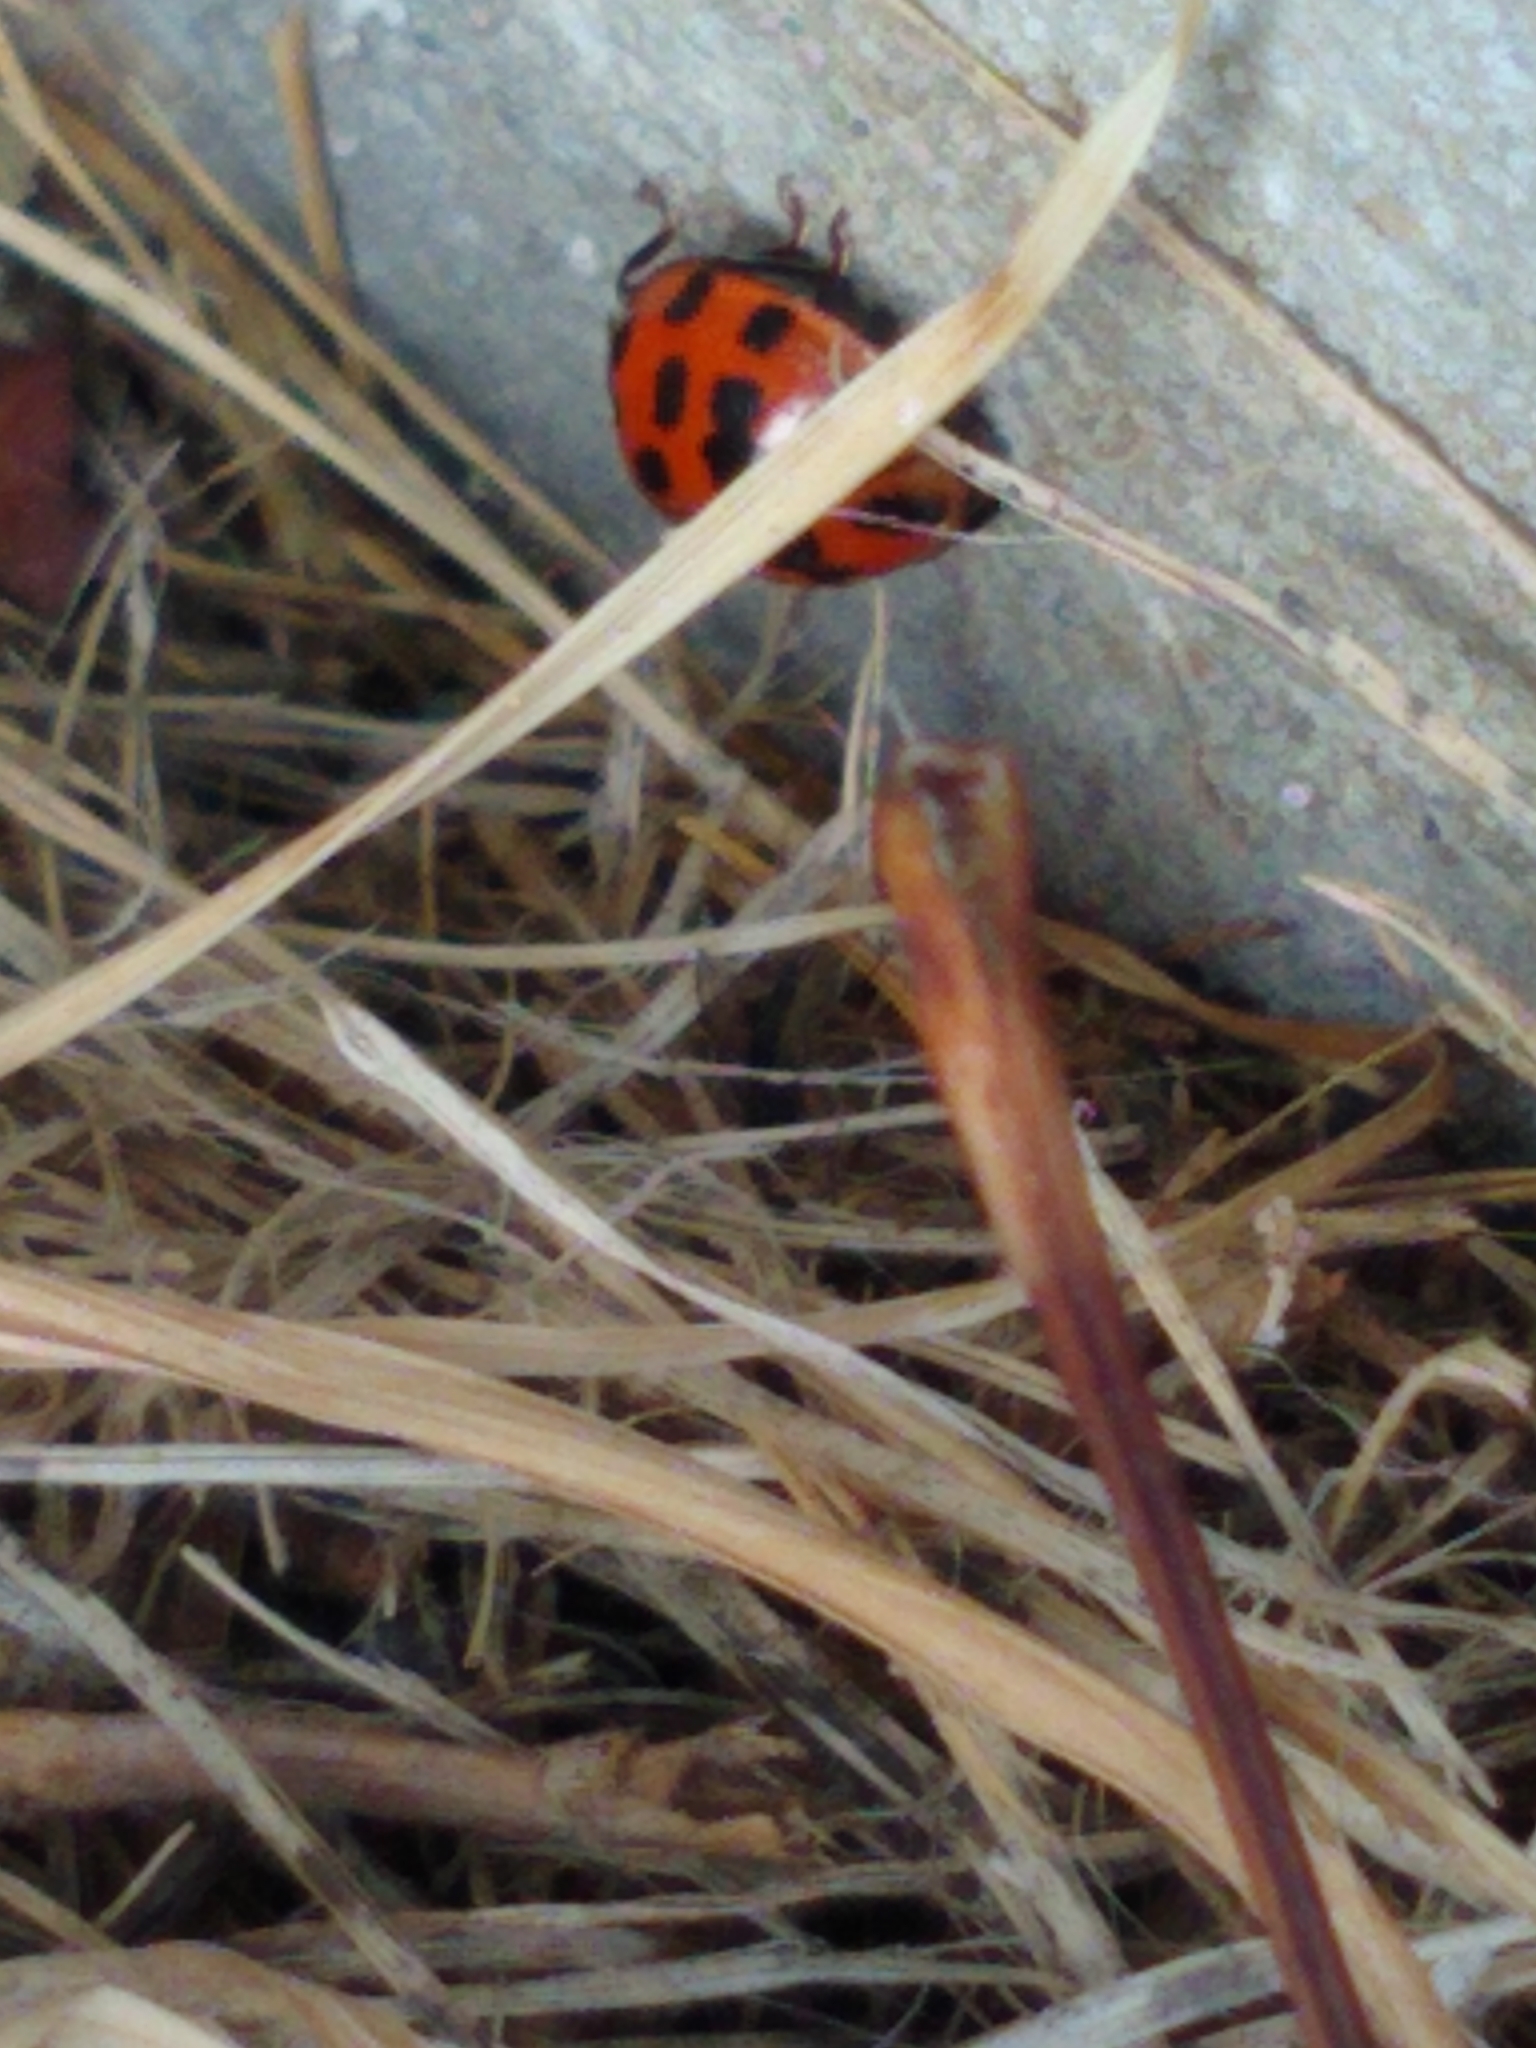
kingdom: Animalia
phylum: Arthropoda
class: Insecta
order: Coleoptera
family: Coccinellidae
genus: Harmonia
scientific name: Harmonia axyridis
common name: Harlequin ladybird
